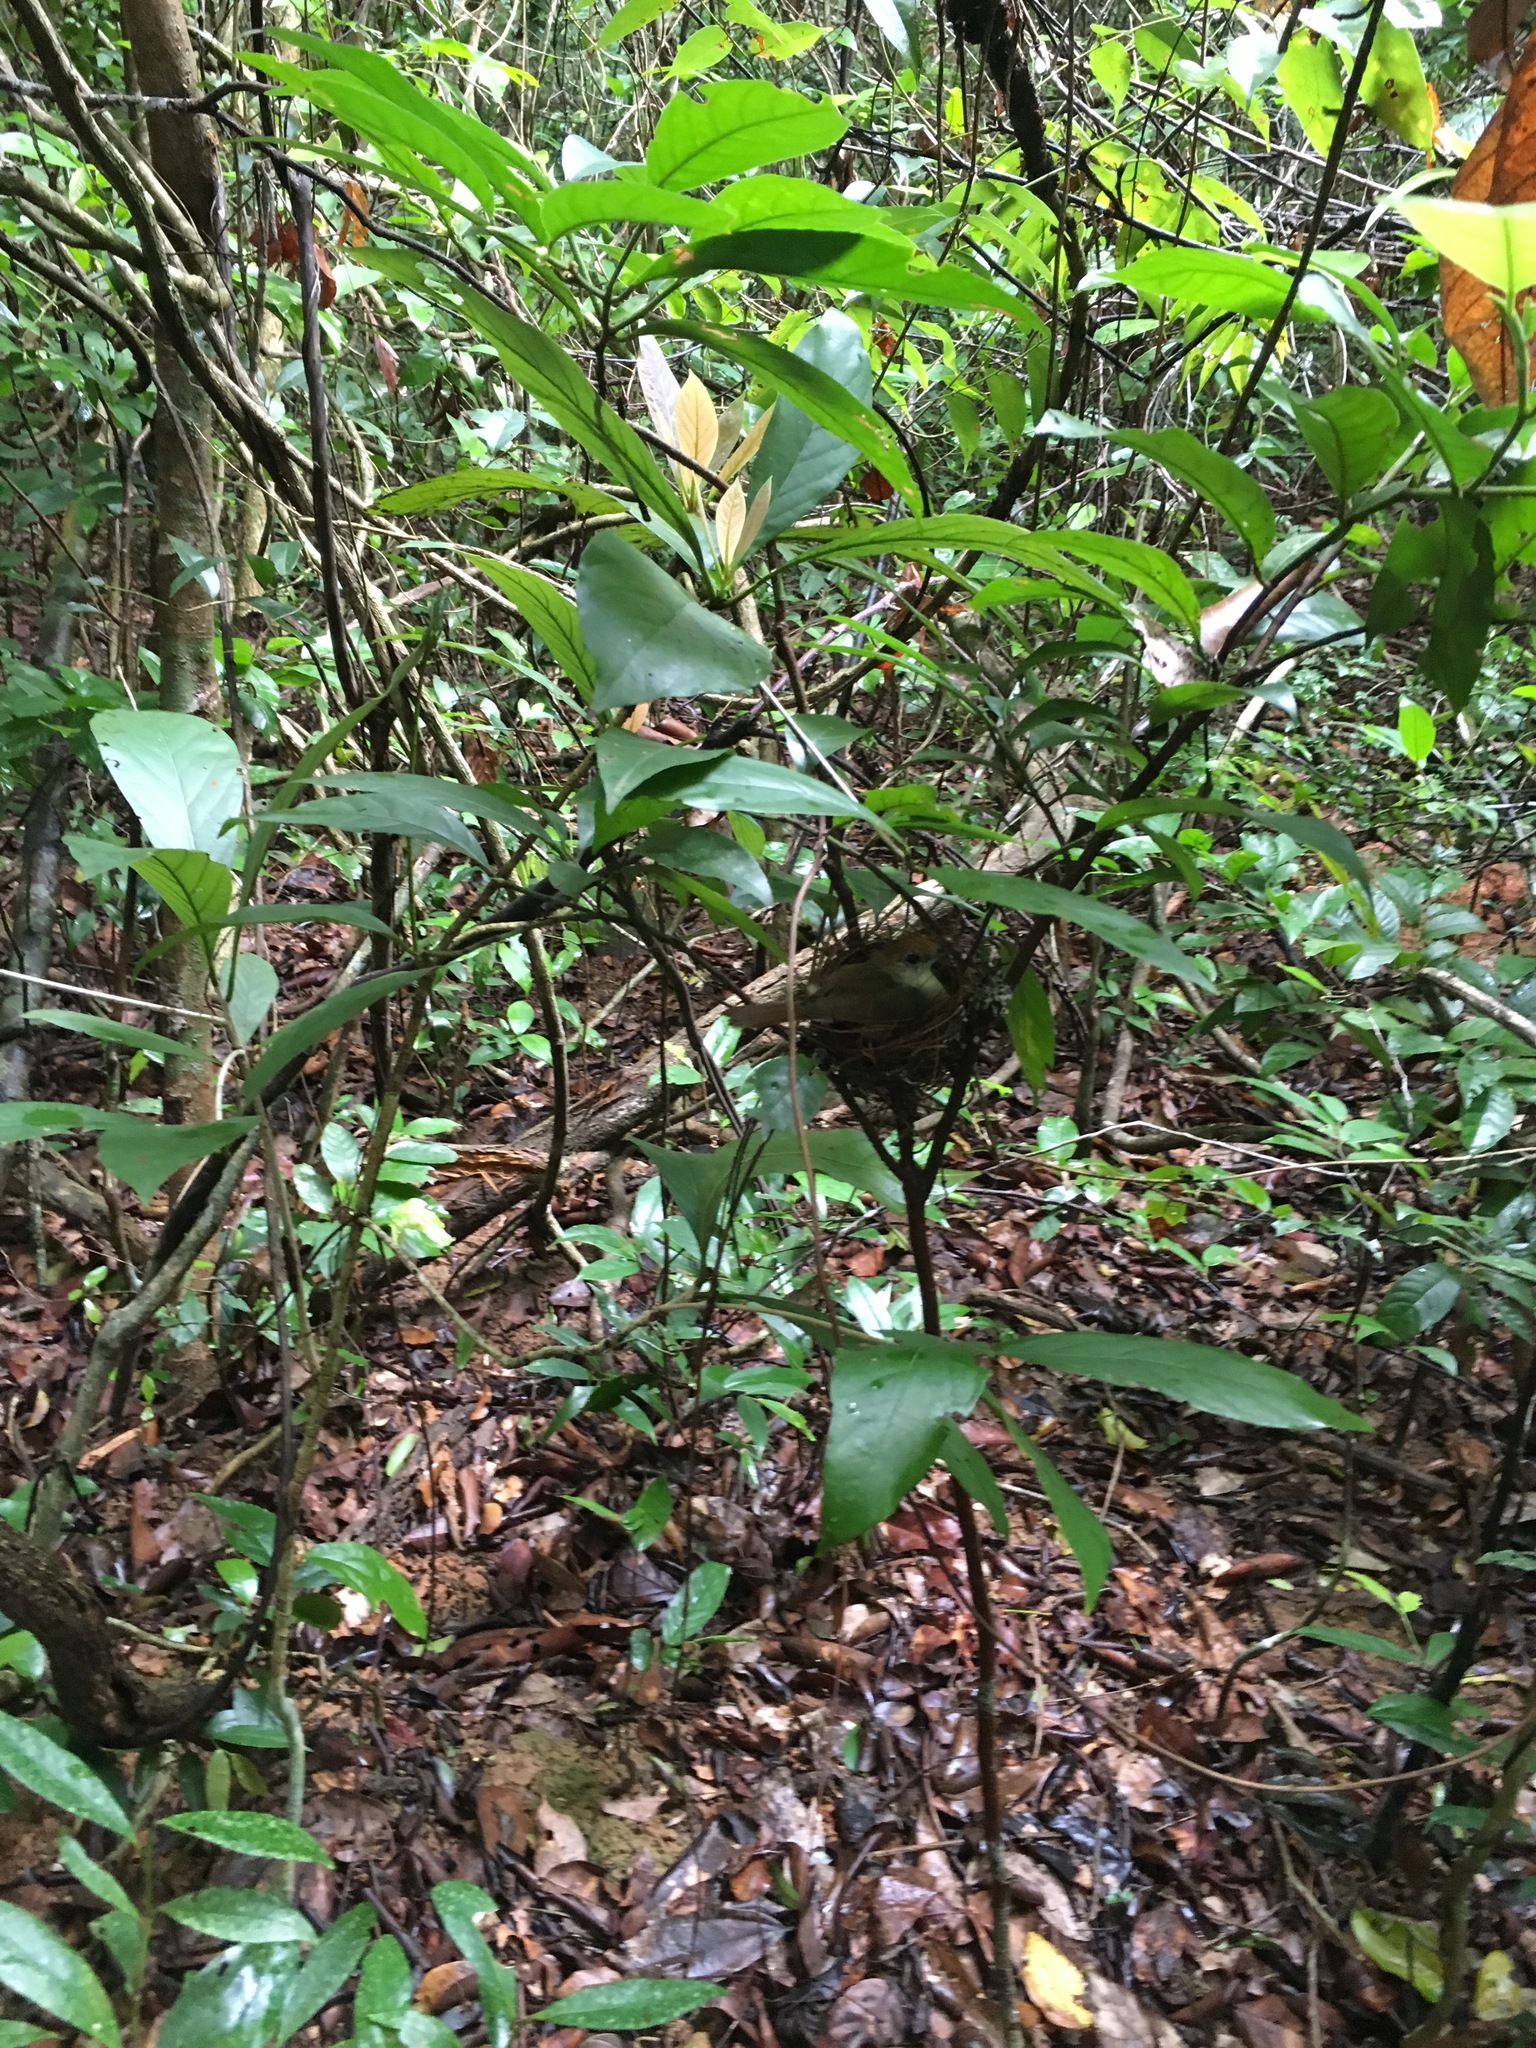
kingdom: Animalia
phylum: Chordata
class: Aves
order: Passeriformes
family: Pellorneidae
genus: Malacopteron
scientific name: Malacopteron cinereum
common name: Scaly-crowned babbler
